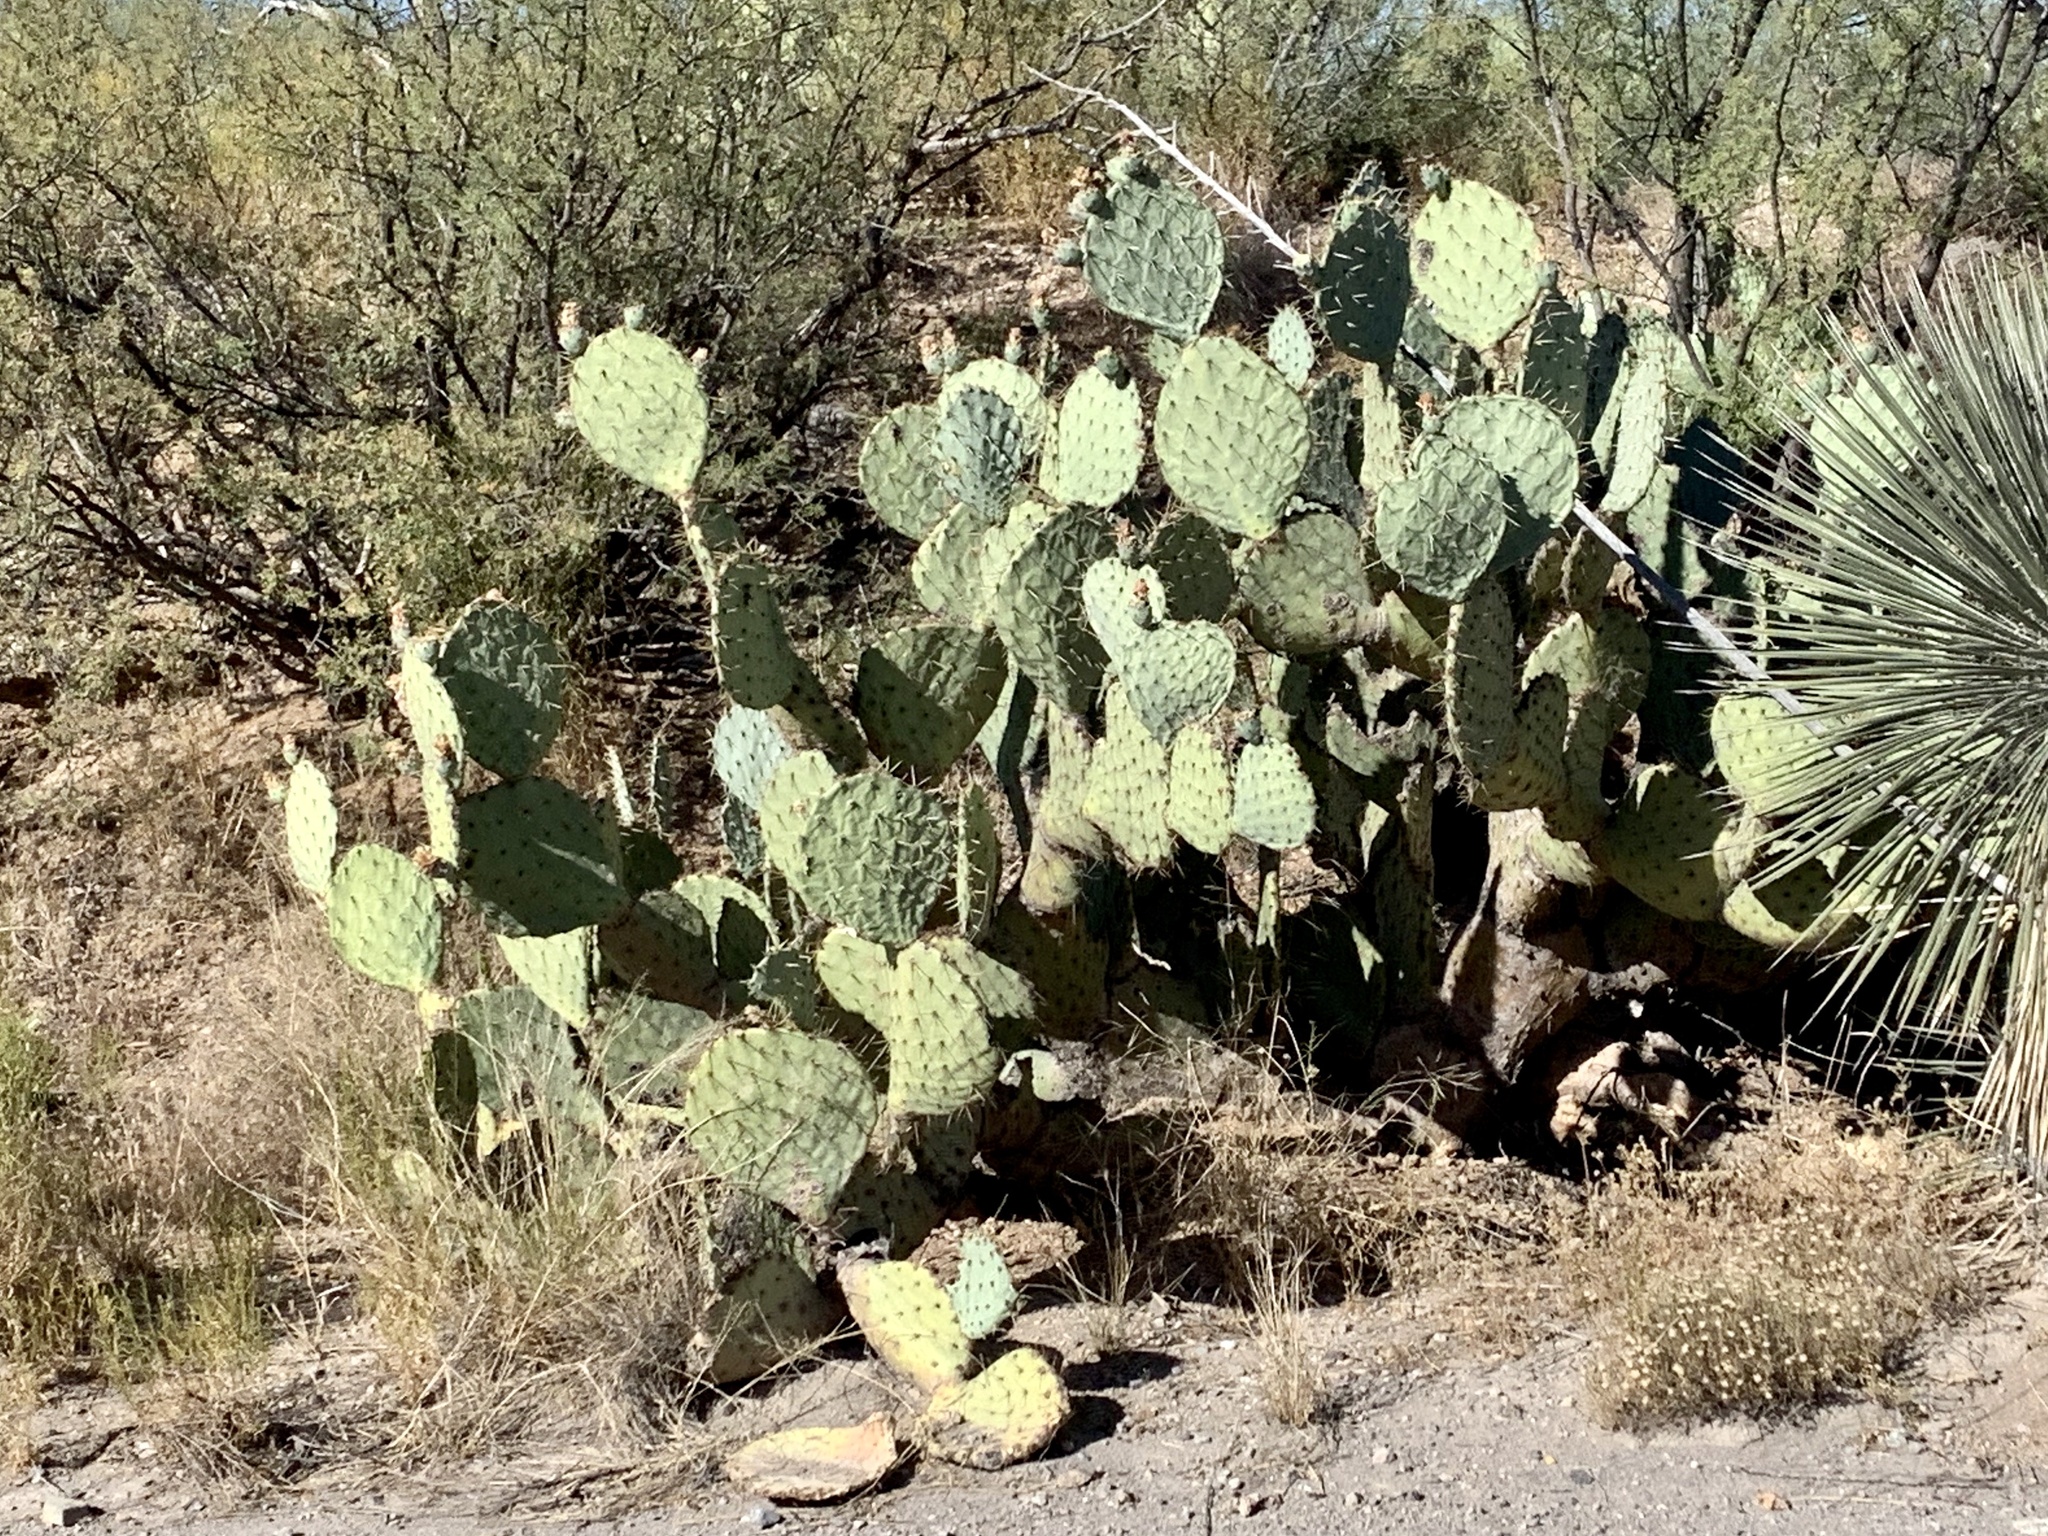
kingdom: Plantae
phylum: Tracheophyta
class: Magnoliopsida
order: Caryophyllales
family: Cactaceae
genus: Opuntia
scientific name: Opuntia engelmannii
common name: Cactus-apple
